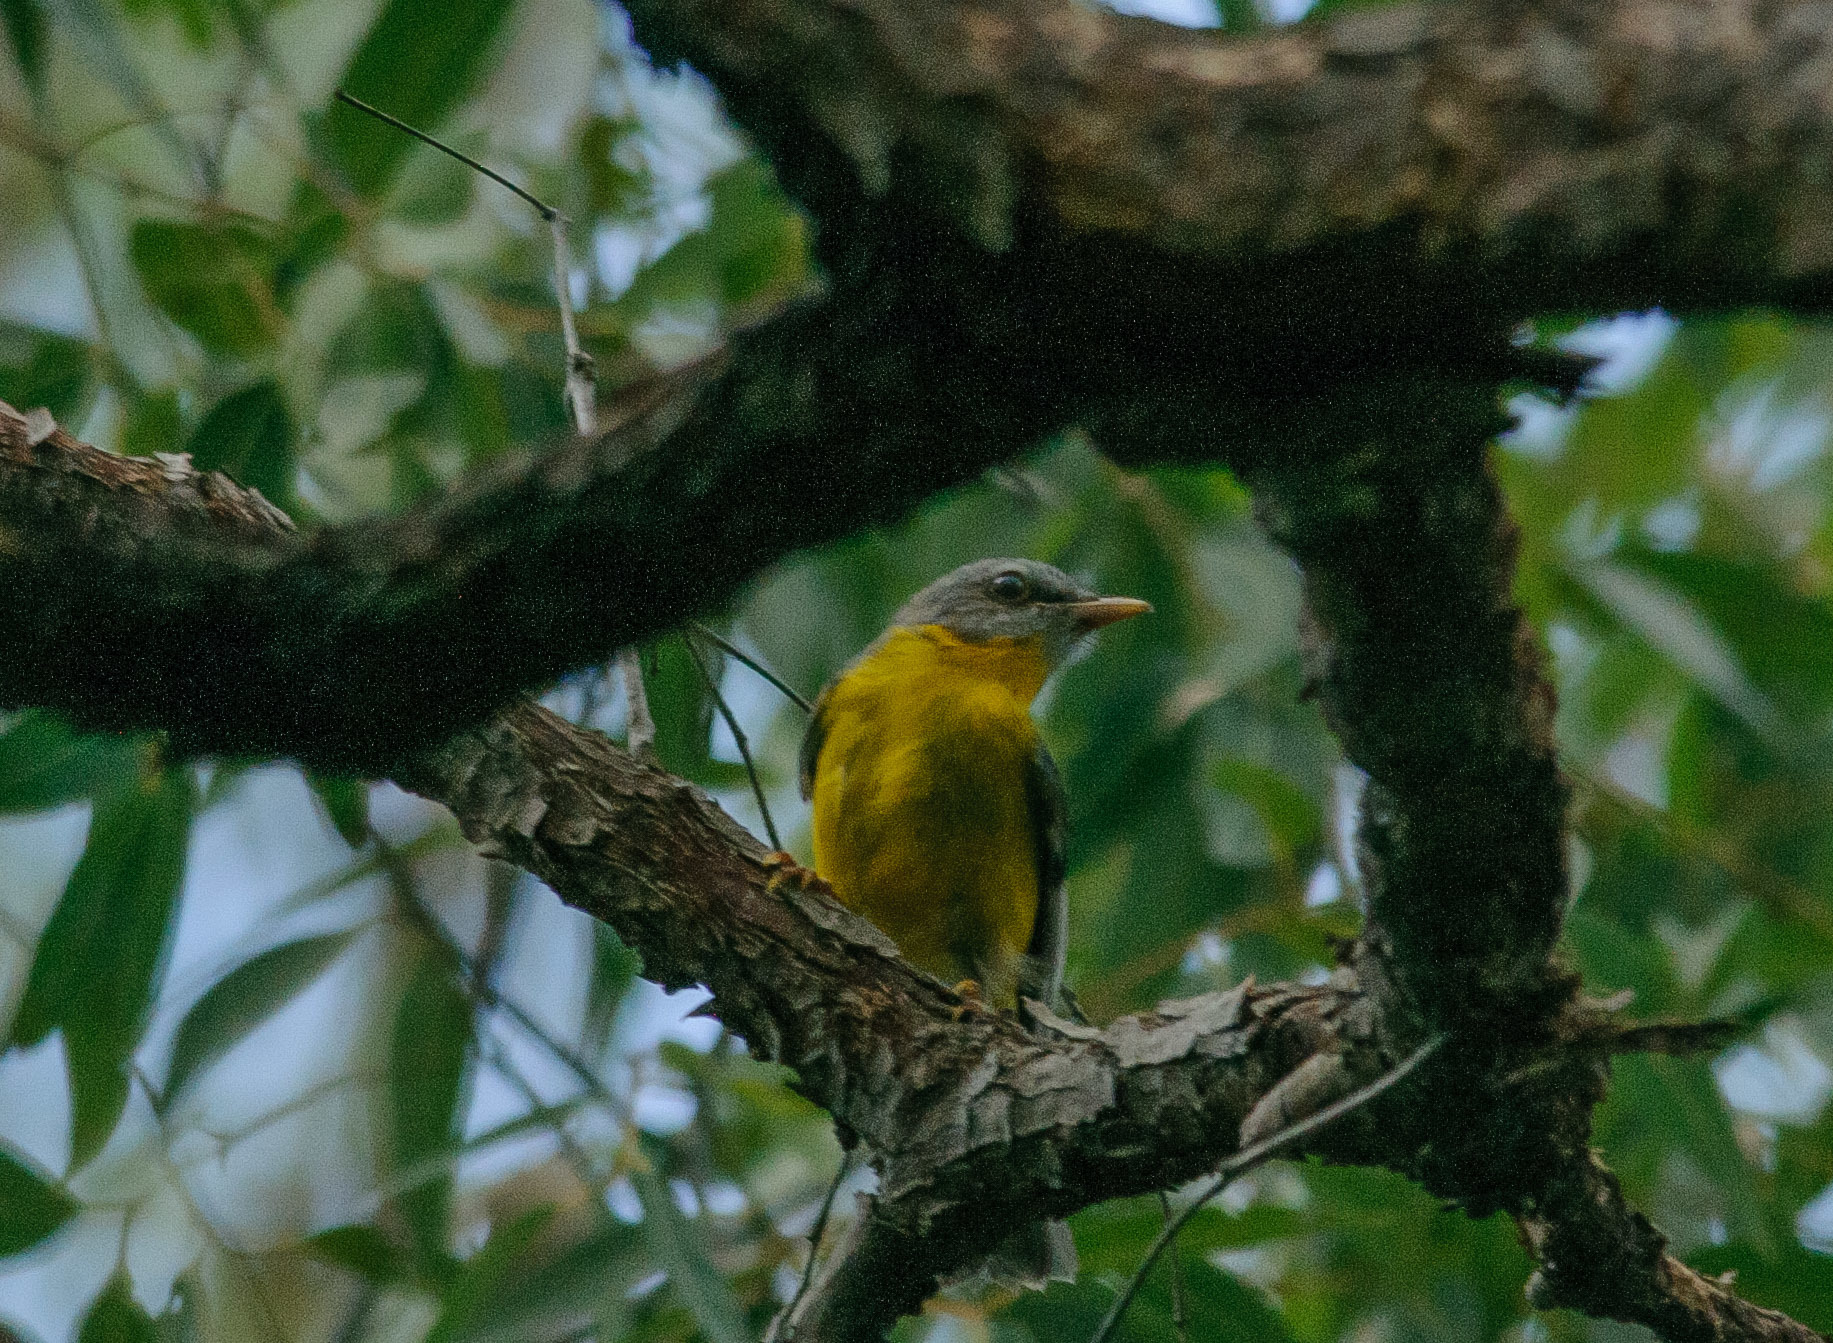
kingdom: Animalia
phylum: Chordata
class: Aves
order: Passeriformes
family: Petroicidae
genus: Eopsaltria
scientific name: Eopsaltria australis
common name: Eastern yellow robin
